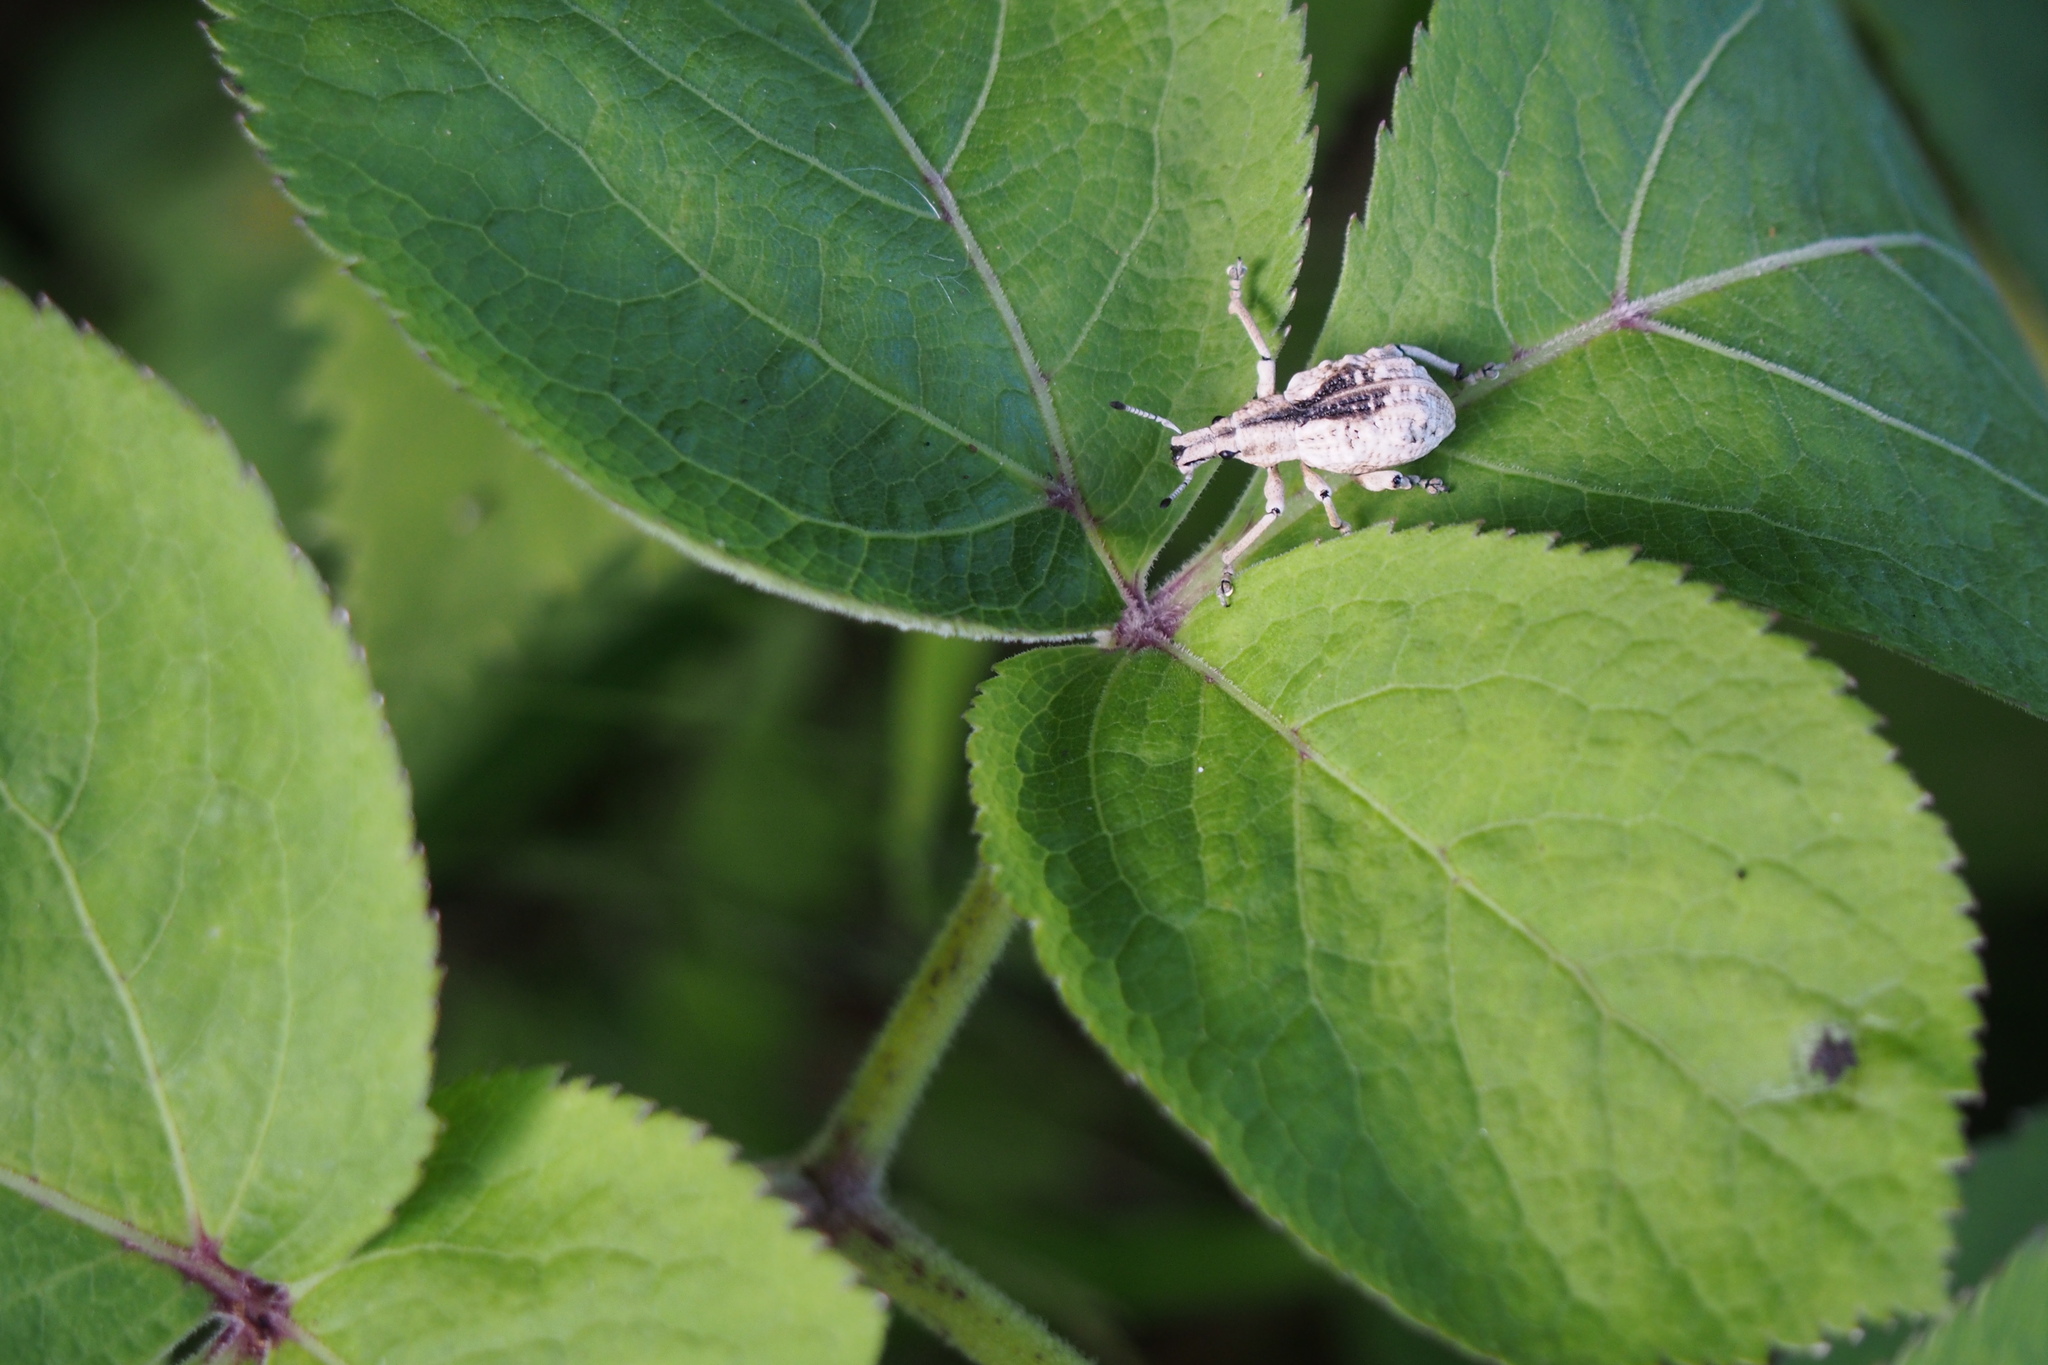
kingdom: Animalia
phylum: Arthropoda
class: Insecta
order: Coleoptera
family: Curculionidae
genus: Dermatoxenus
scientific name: Dermatoxenus caesicollis
